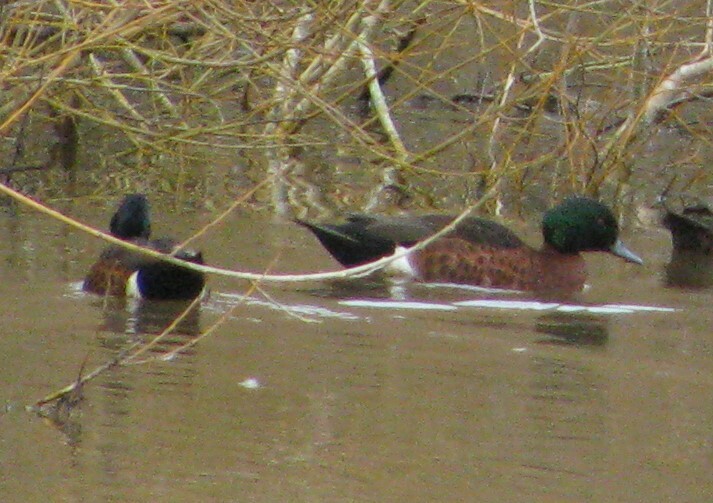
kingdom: Animalia
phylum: Chordata
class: Aves
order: Anseriformes
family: Anatidae
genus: Anas
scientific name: Anas castanea
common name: Chestnut teal
